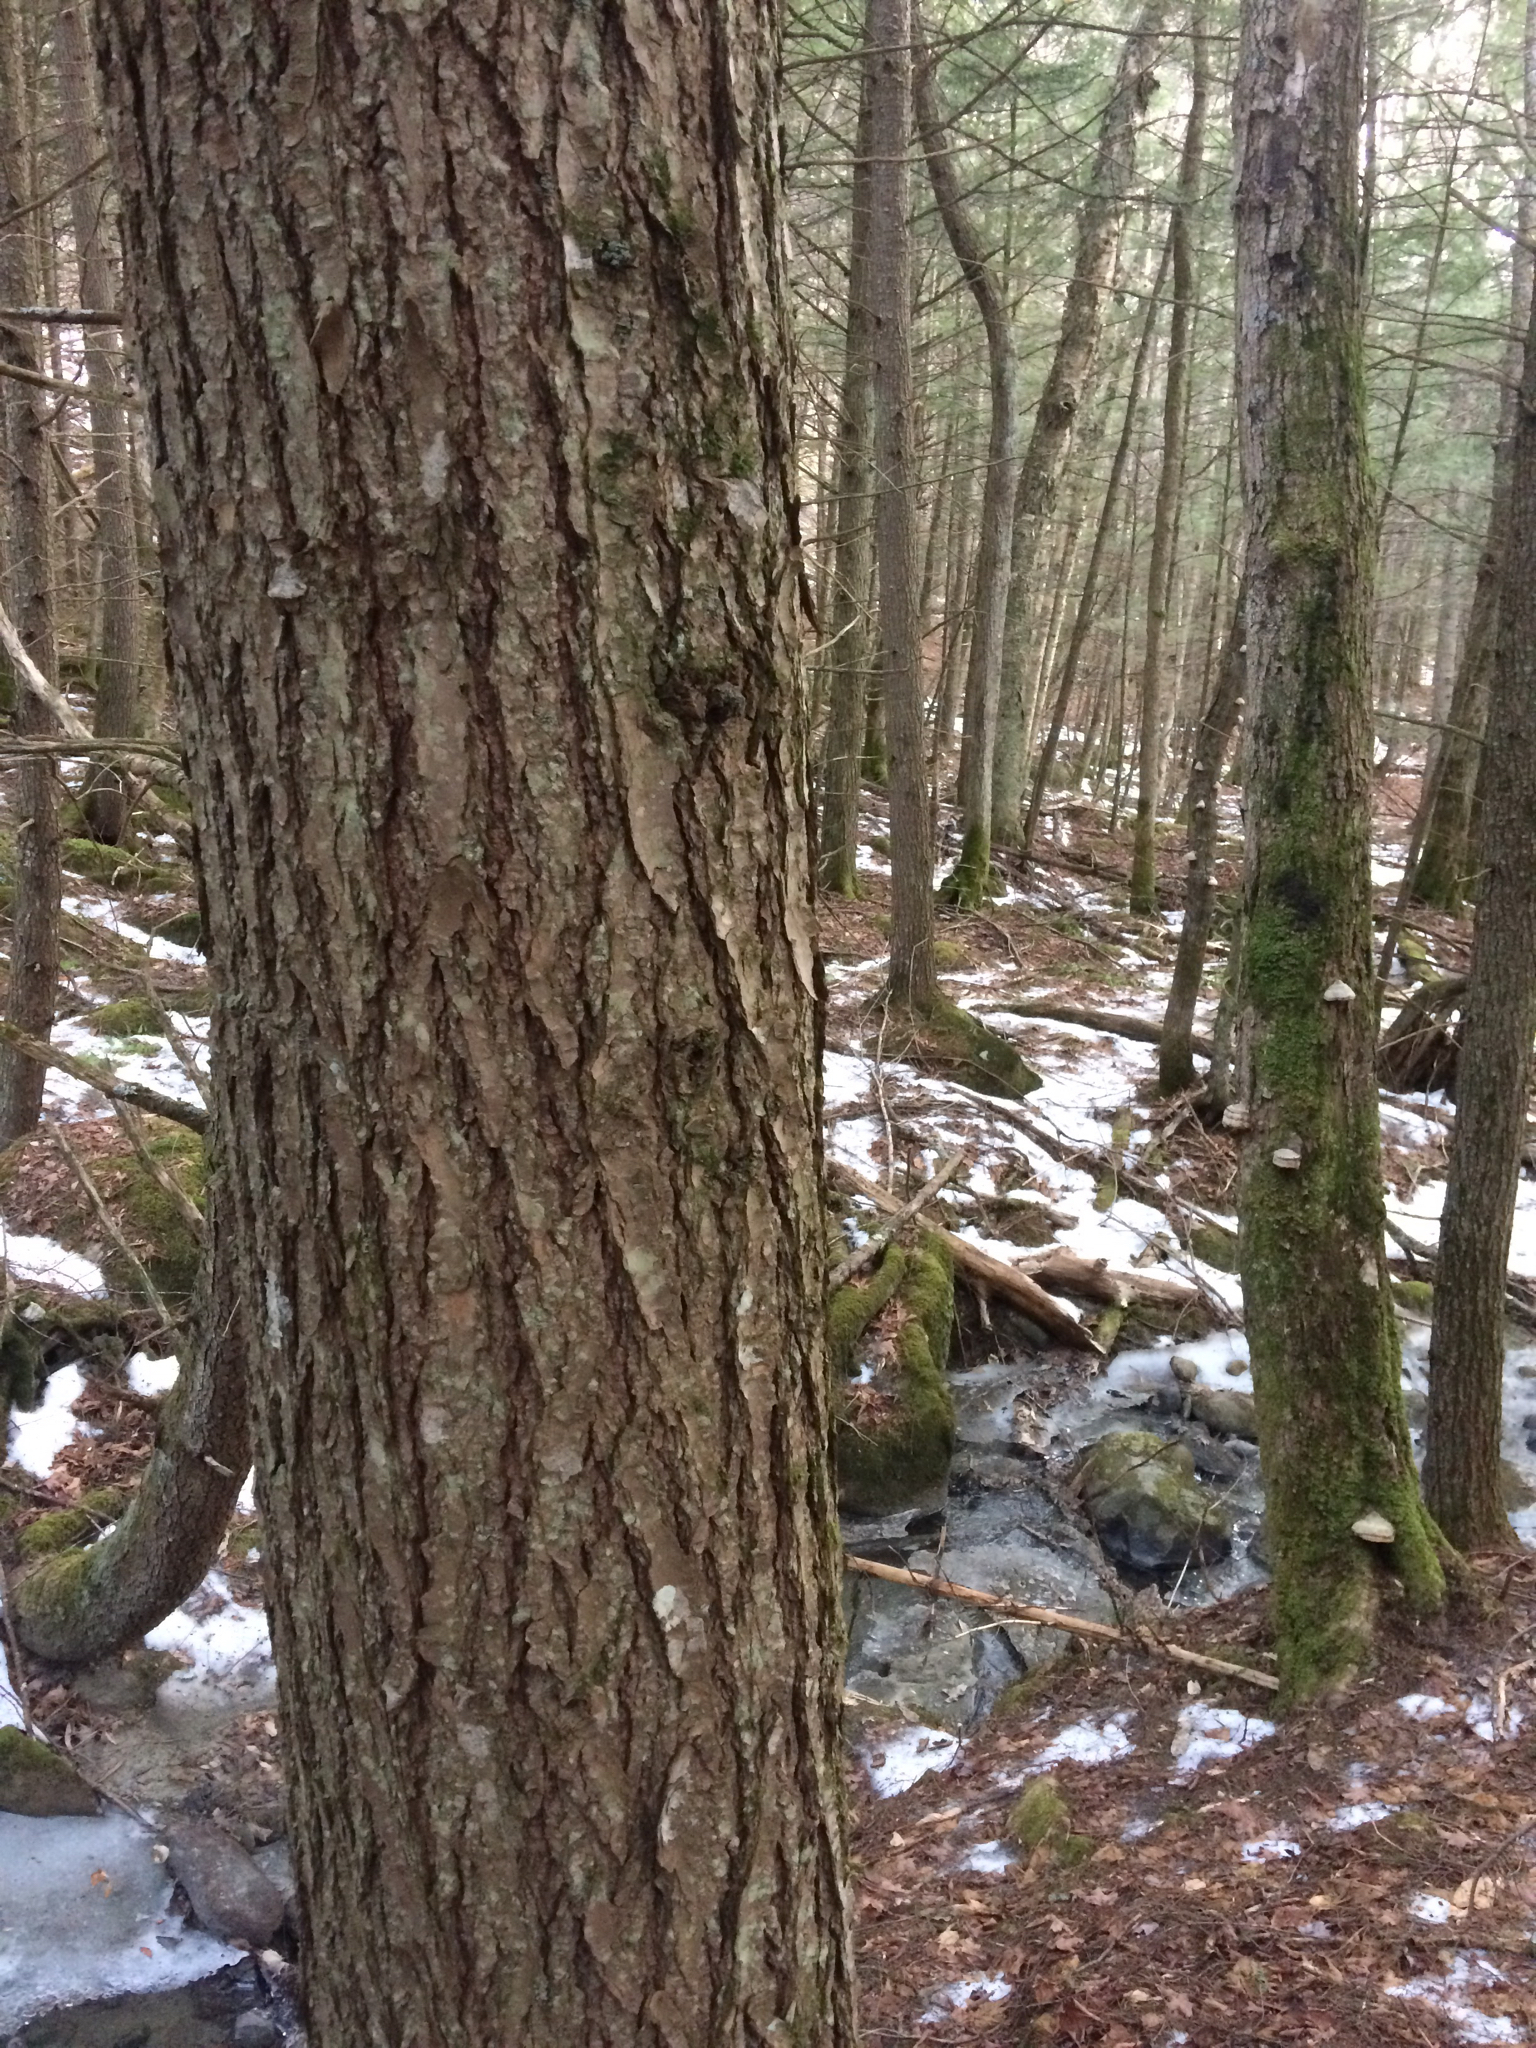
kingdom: Plantae
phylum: Tracheophyta
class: Pinopsida
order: Pinales
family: Pinaceae
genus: Tsuga
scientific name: Tsuga canadensis
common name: Eastern hemlock
